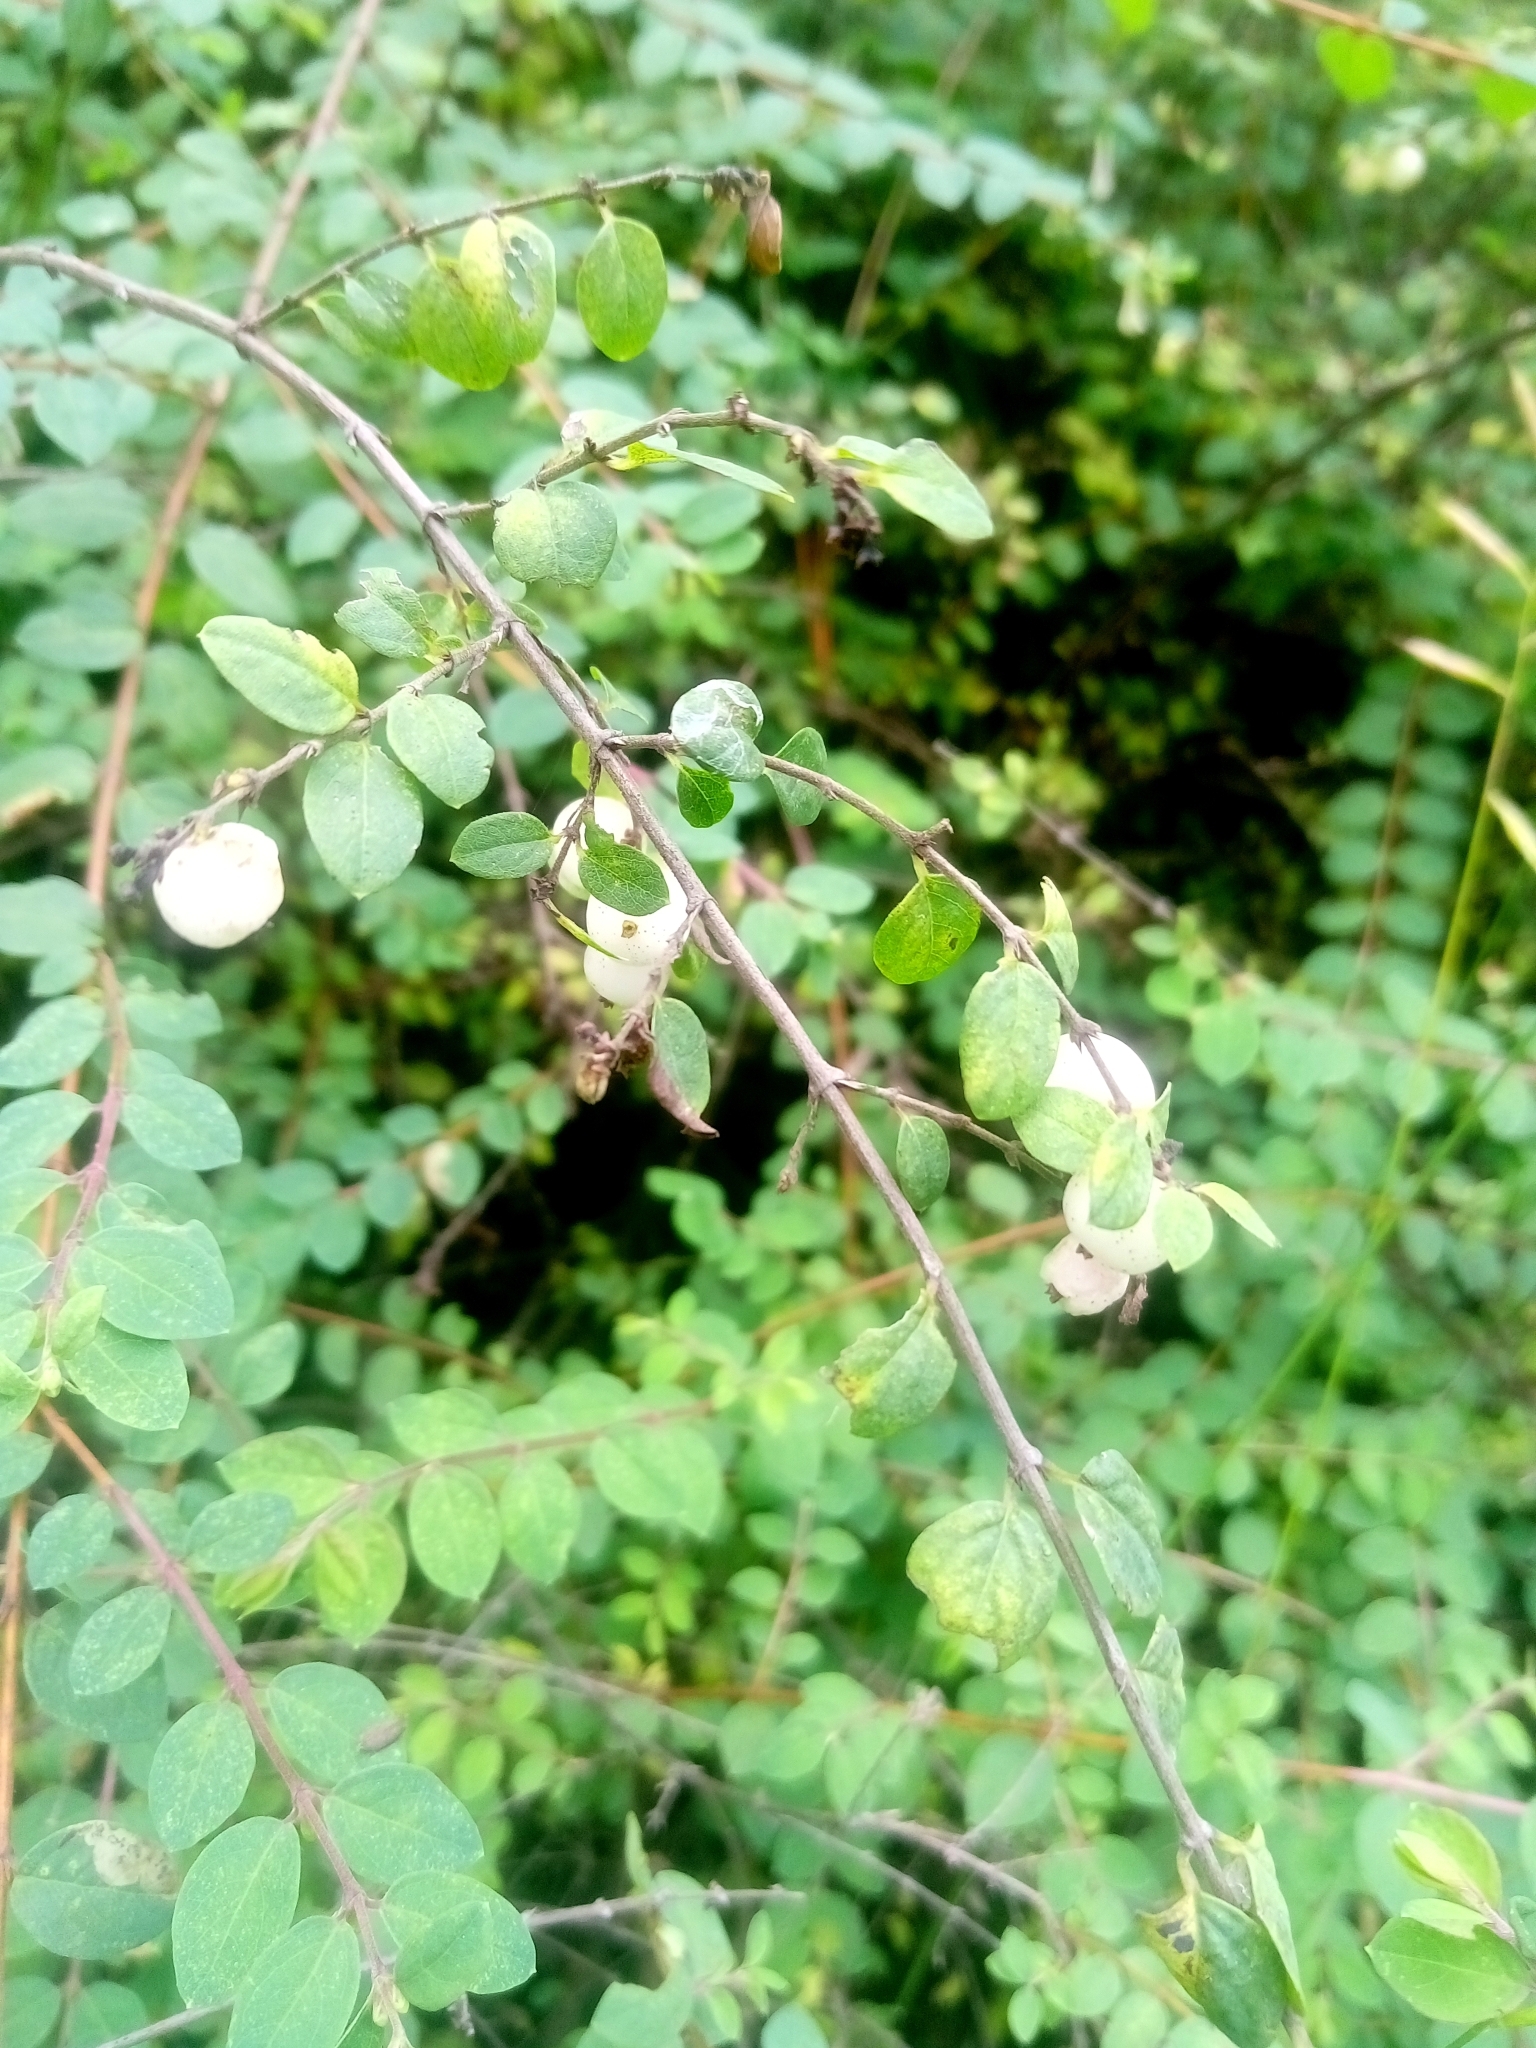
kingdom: Plantae
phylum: Tracheophyta
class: Magnoliopsida
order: Dipsacales
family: Caprifoliaceae
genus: Symphoricarpos
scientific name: Symphoricarpos microphyllus
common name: Small-leaved snowberry
